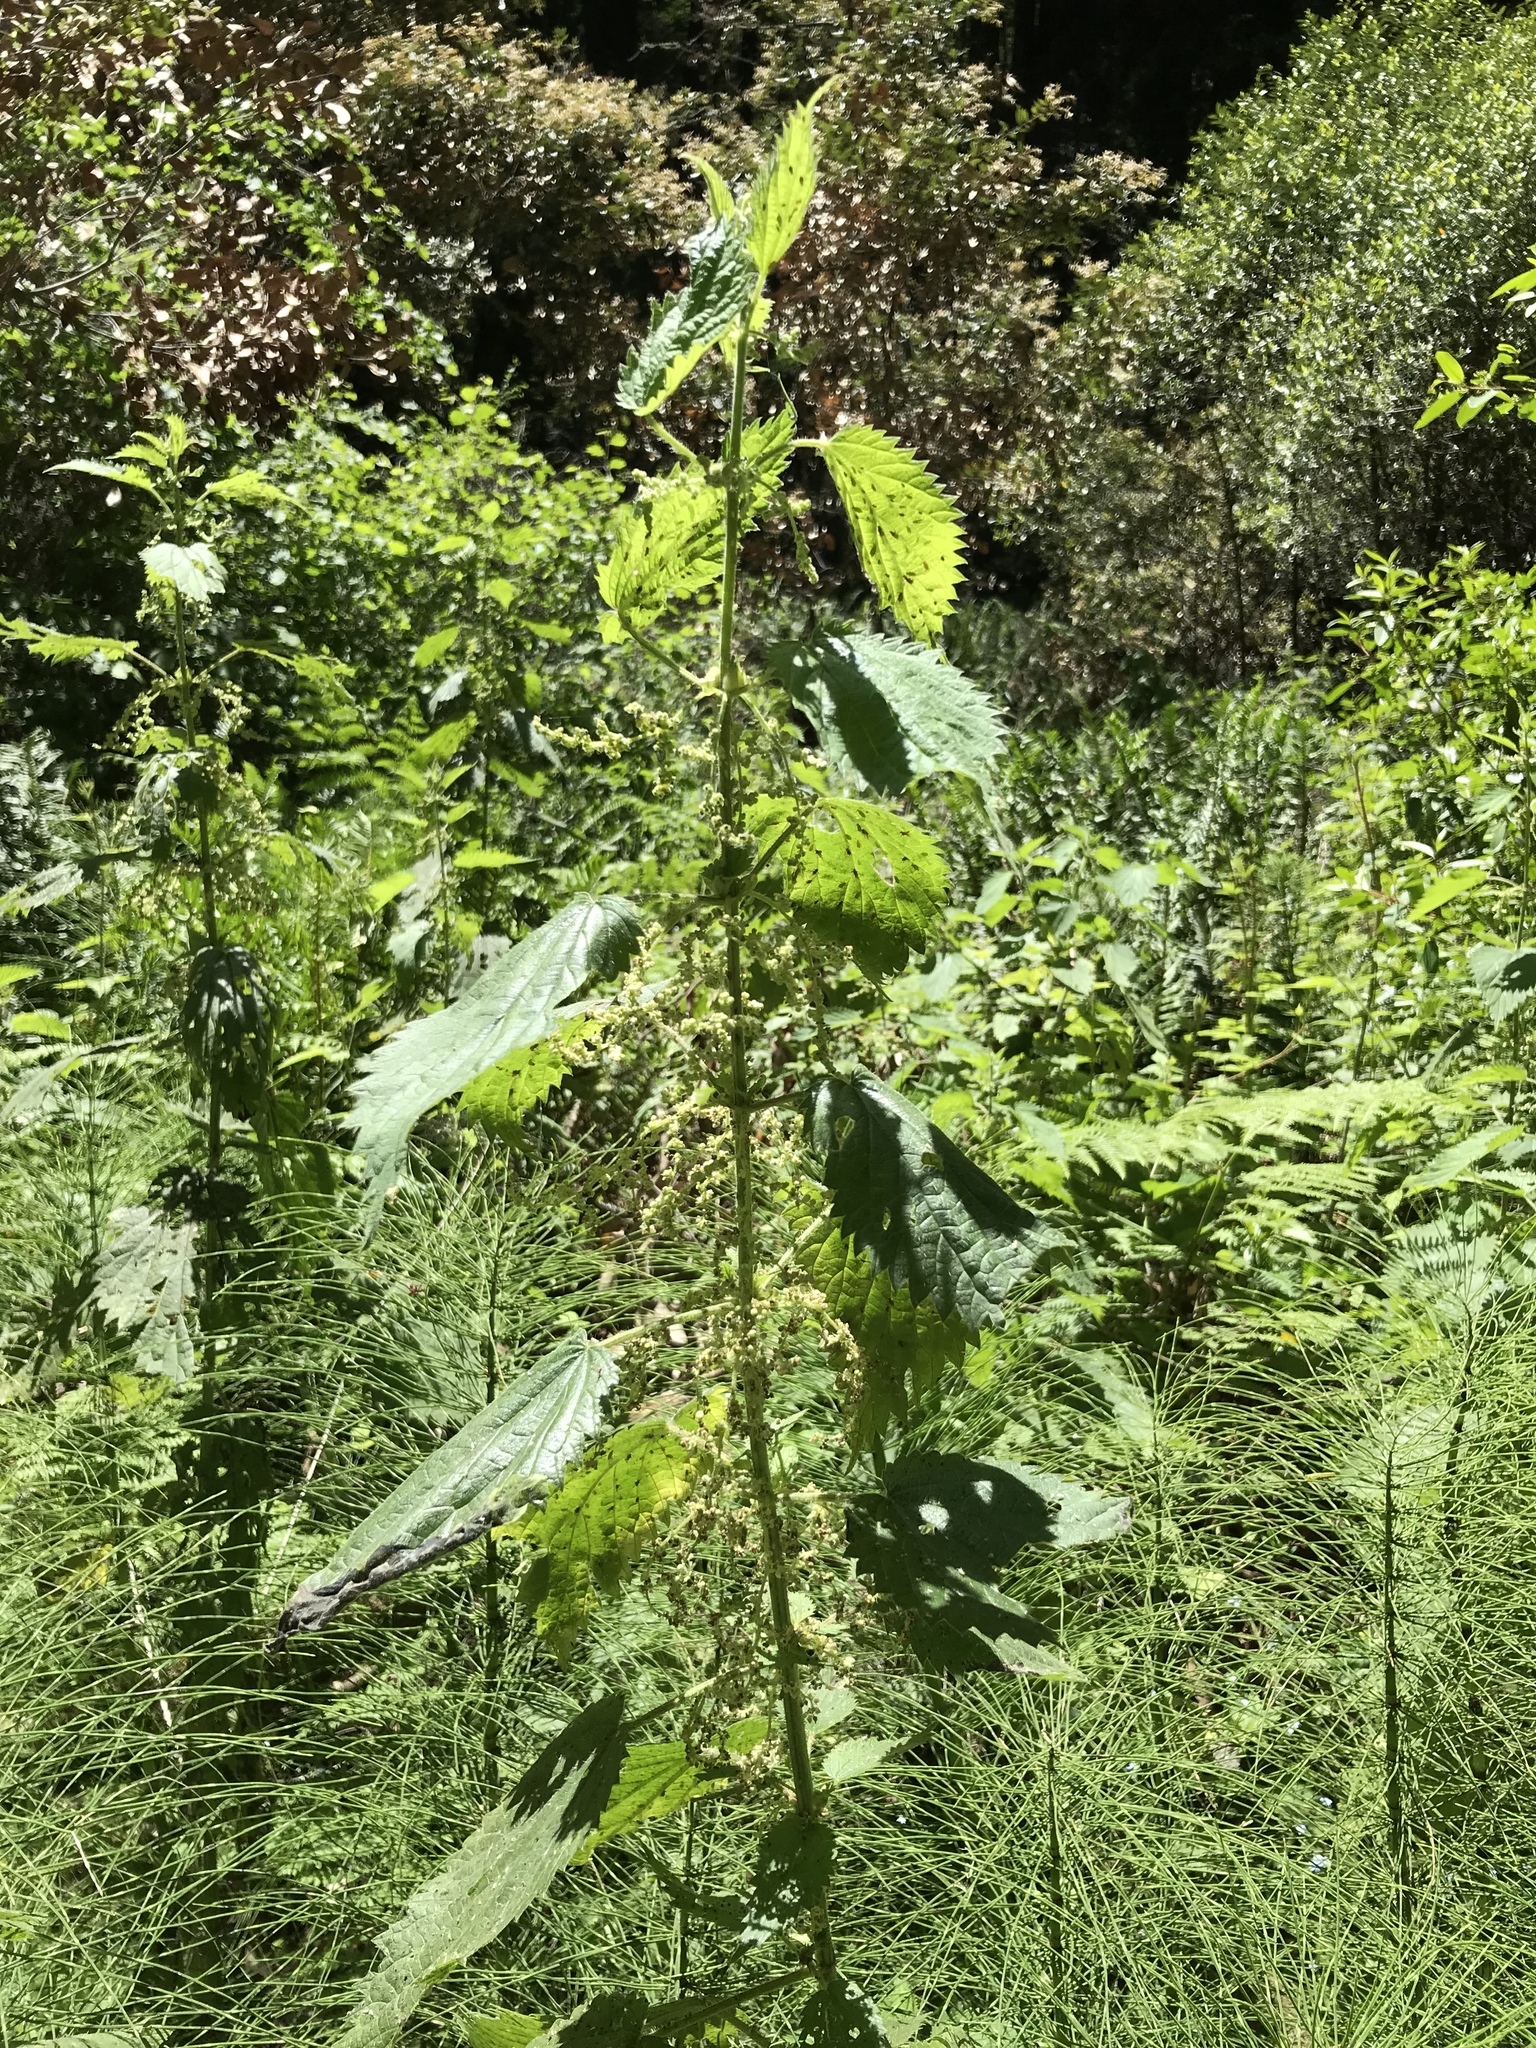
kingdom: Plantae
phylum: Tracheophyta
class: Magnoliopsida
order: Rosales
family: Urticaceae
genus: Urtica
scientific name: Urtica dioica
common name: Common nettle
